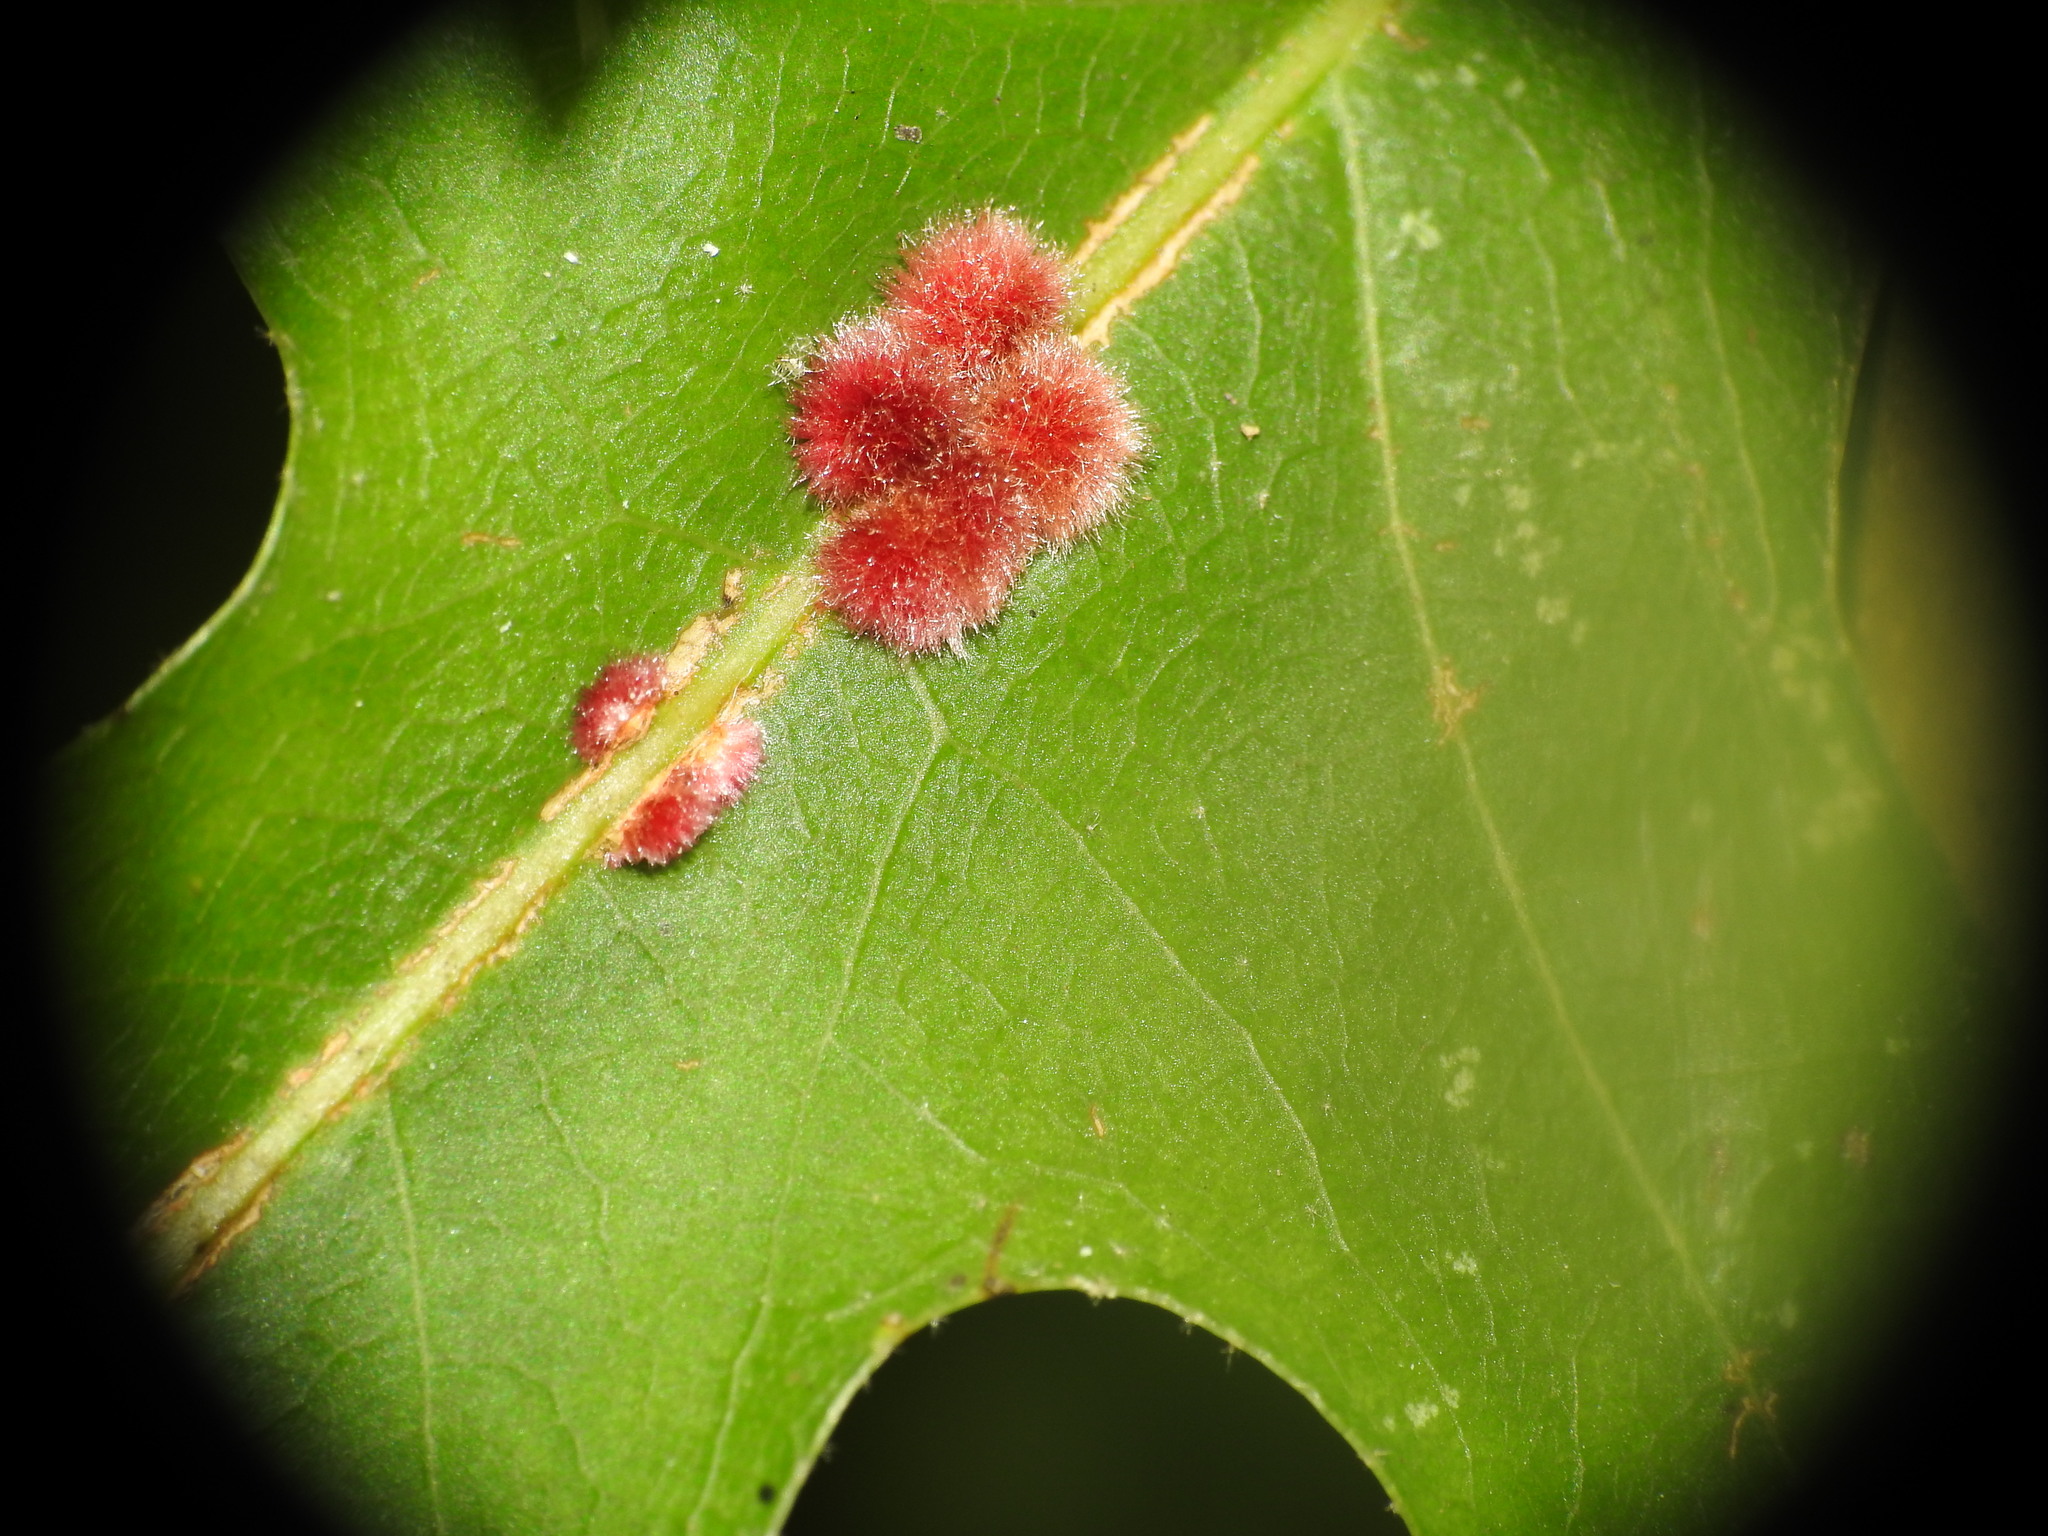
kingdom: Animalia
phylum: Arthropoda
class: Insecta
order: Hymenoptera
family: Cynipidae
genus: Callirhytis
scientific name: Callirhytis
